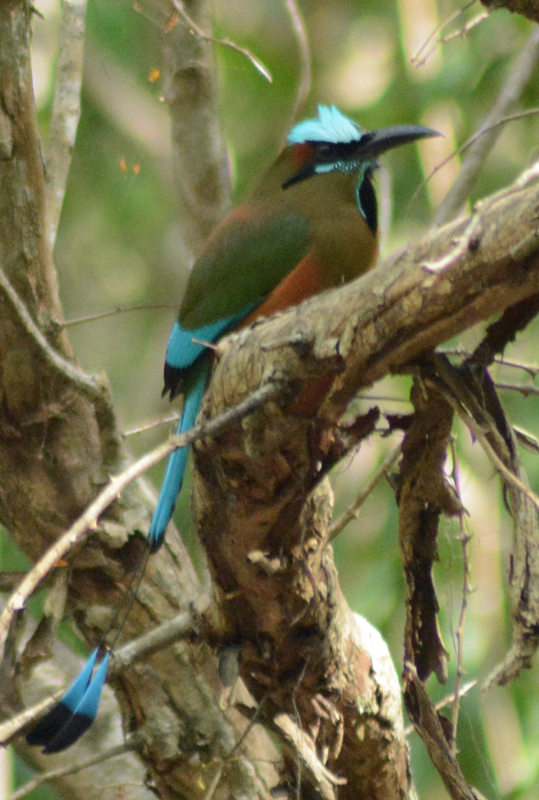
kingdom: Animalia
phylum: Chordata
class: Aves
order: Coraciiformes
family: Momotidae
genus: Eumomota
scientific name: Eumomota superciliosa
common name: Turquoise-browed motmot
